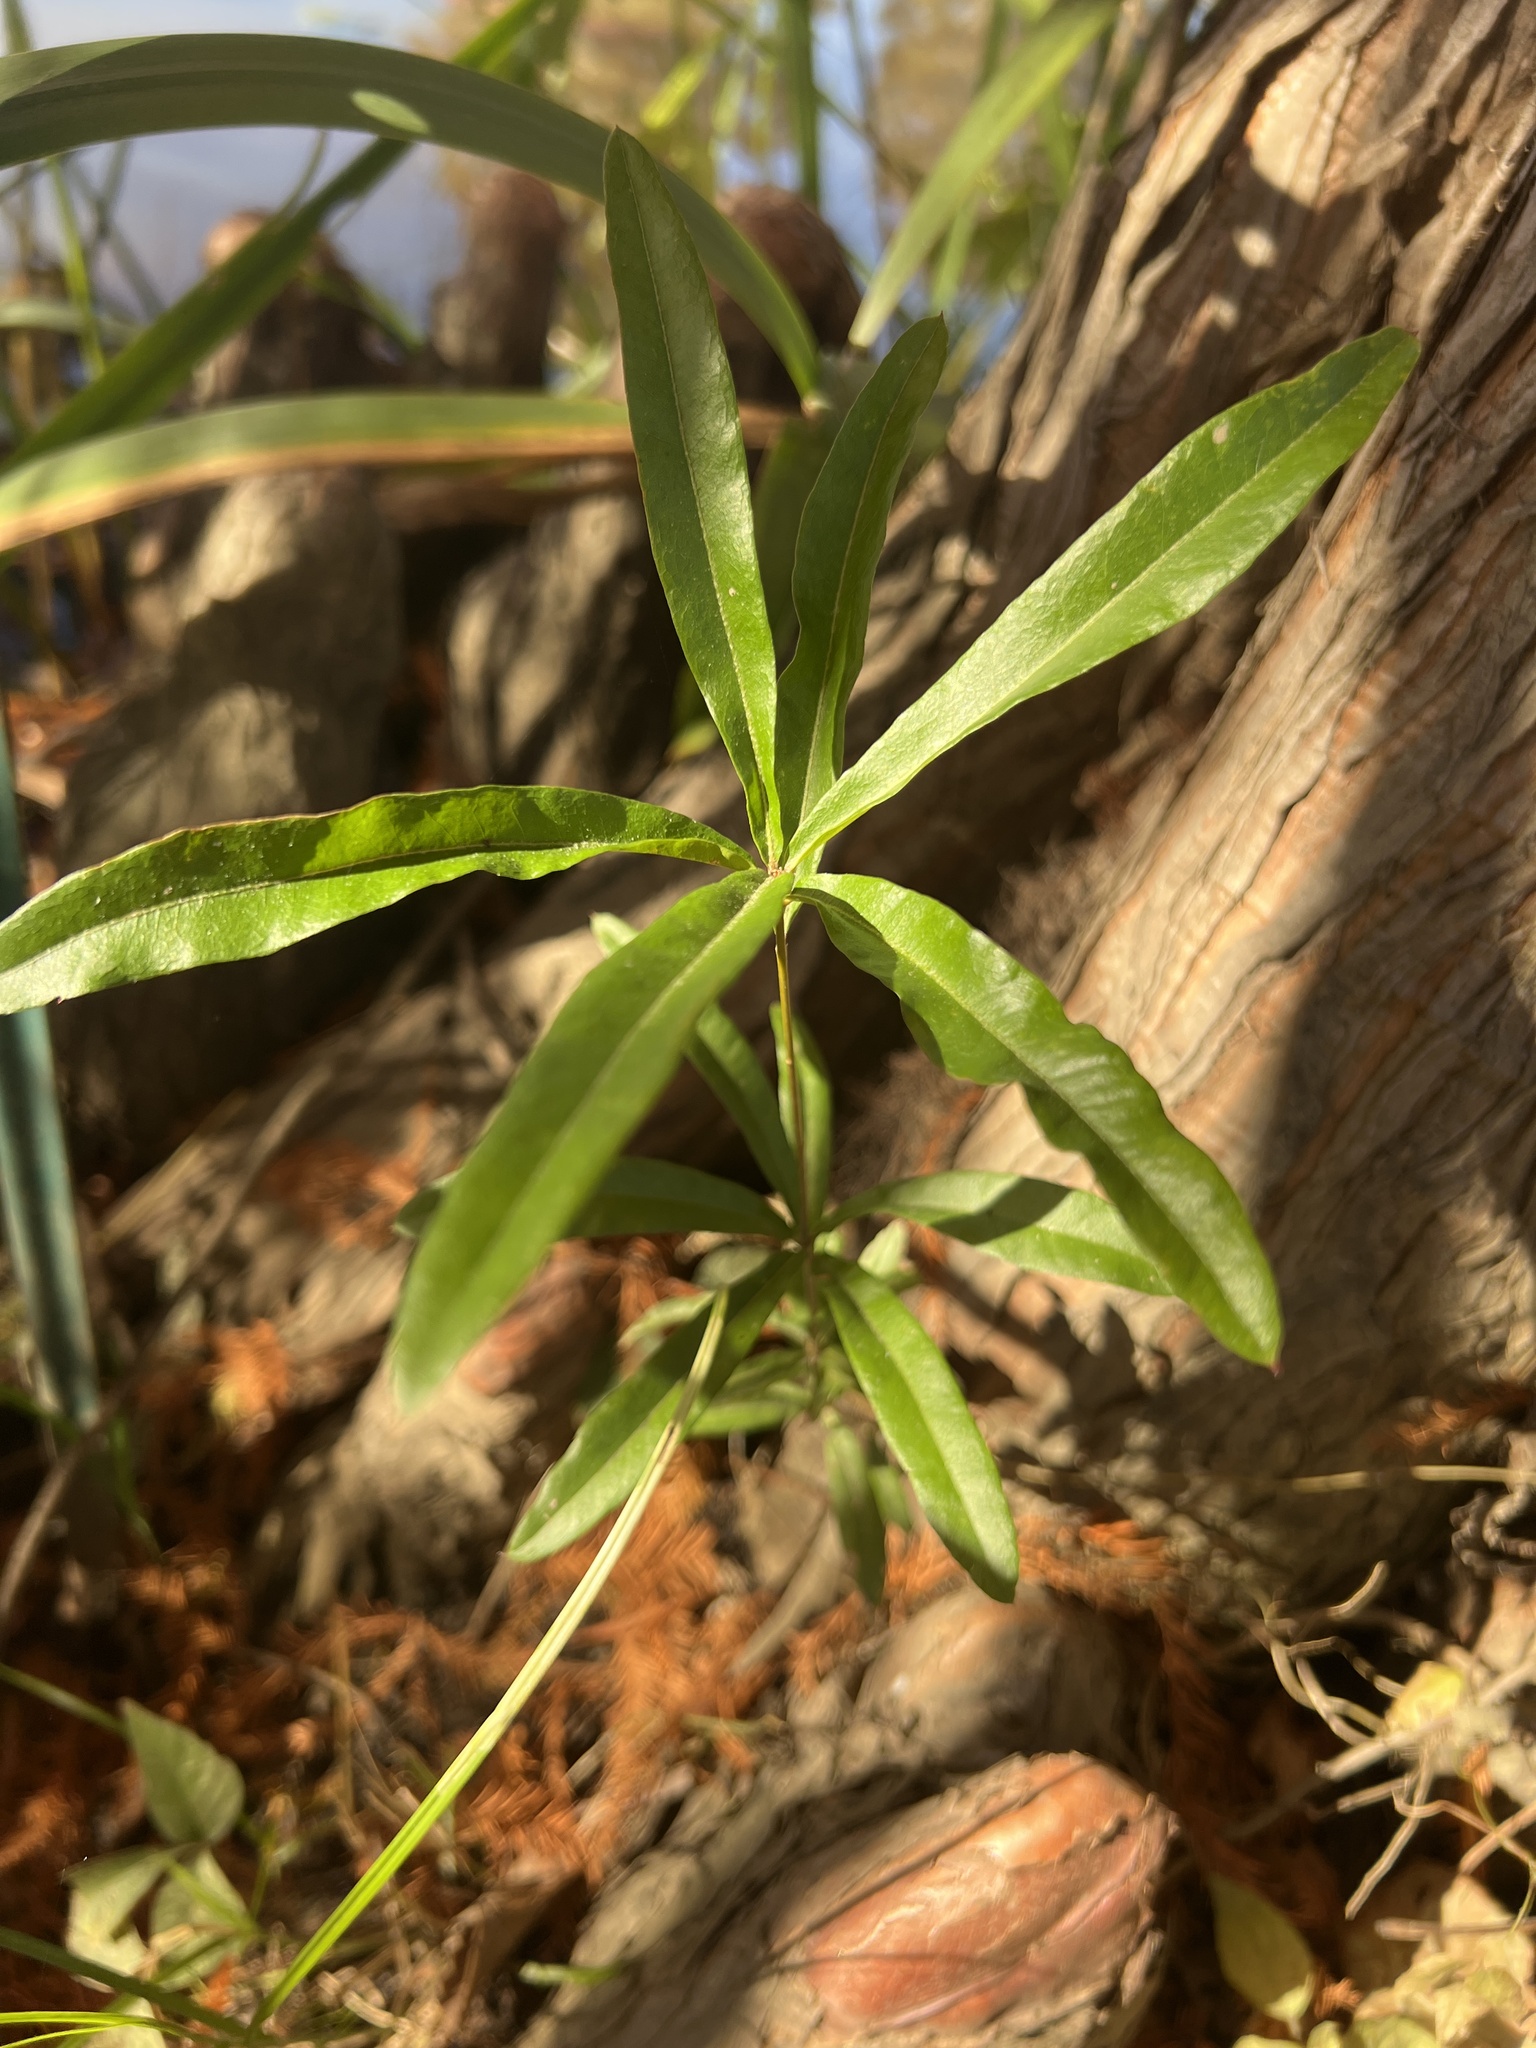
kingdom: Plantae
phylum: Tracheophyta
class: Magnoliopsida
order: Fagales
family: Fagaceae
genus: Quercus
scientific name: Quercus phellos
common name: Willow oak
